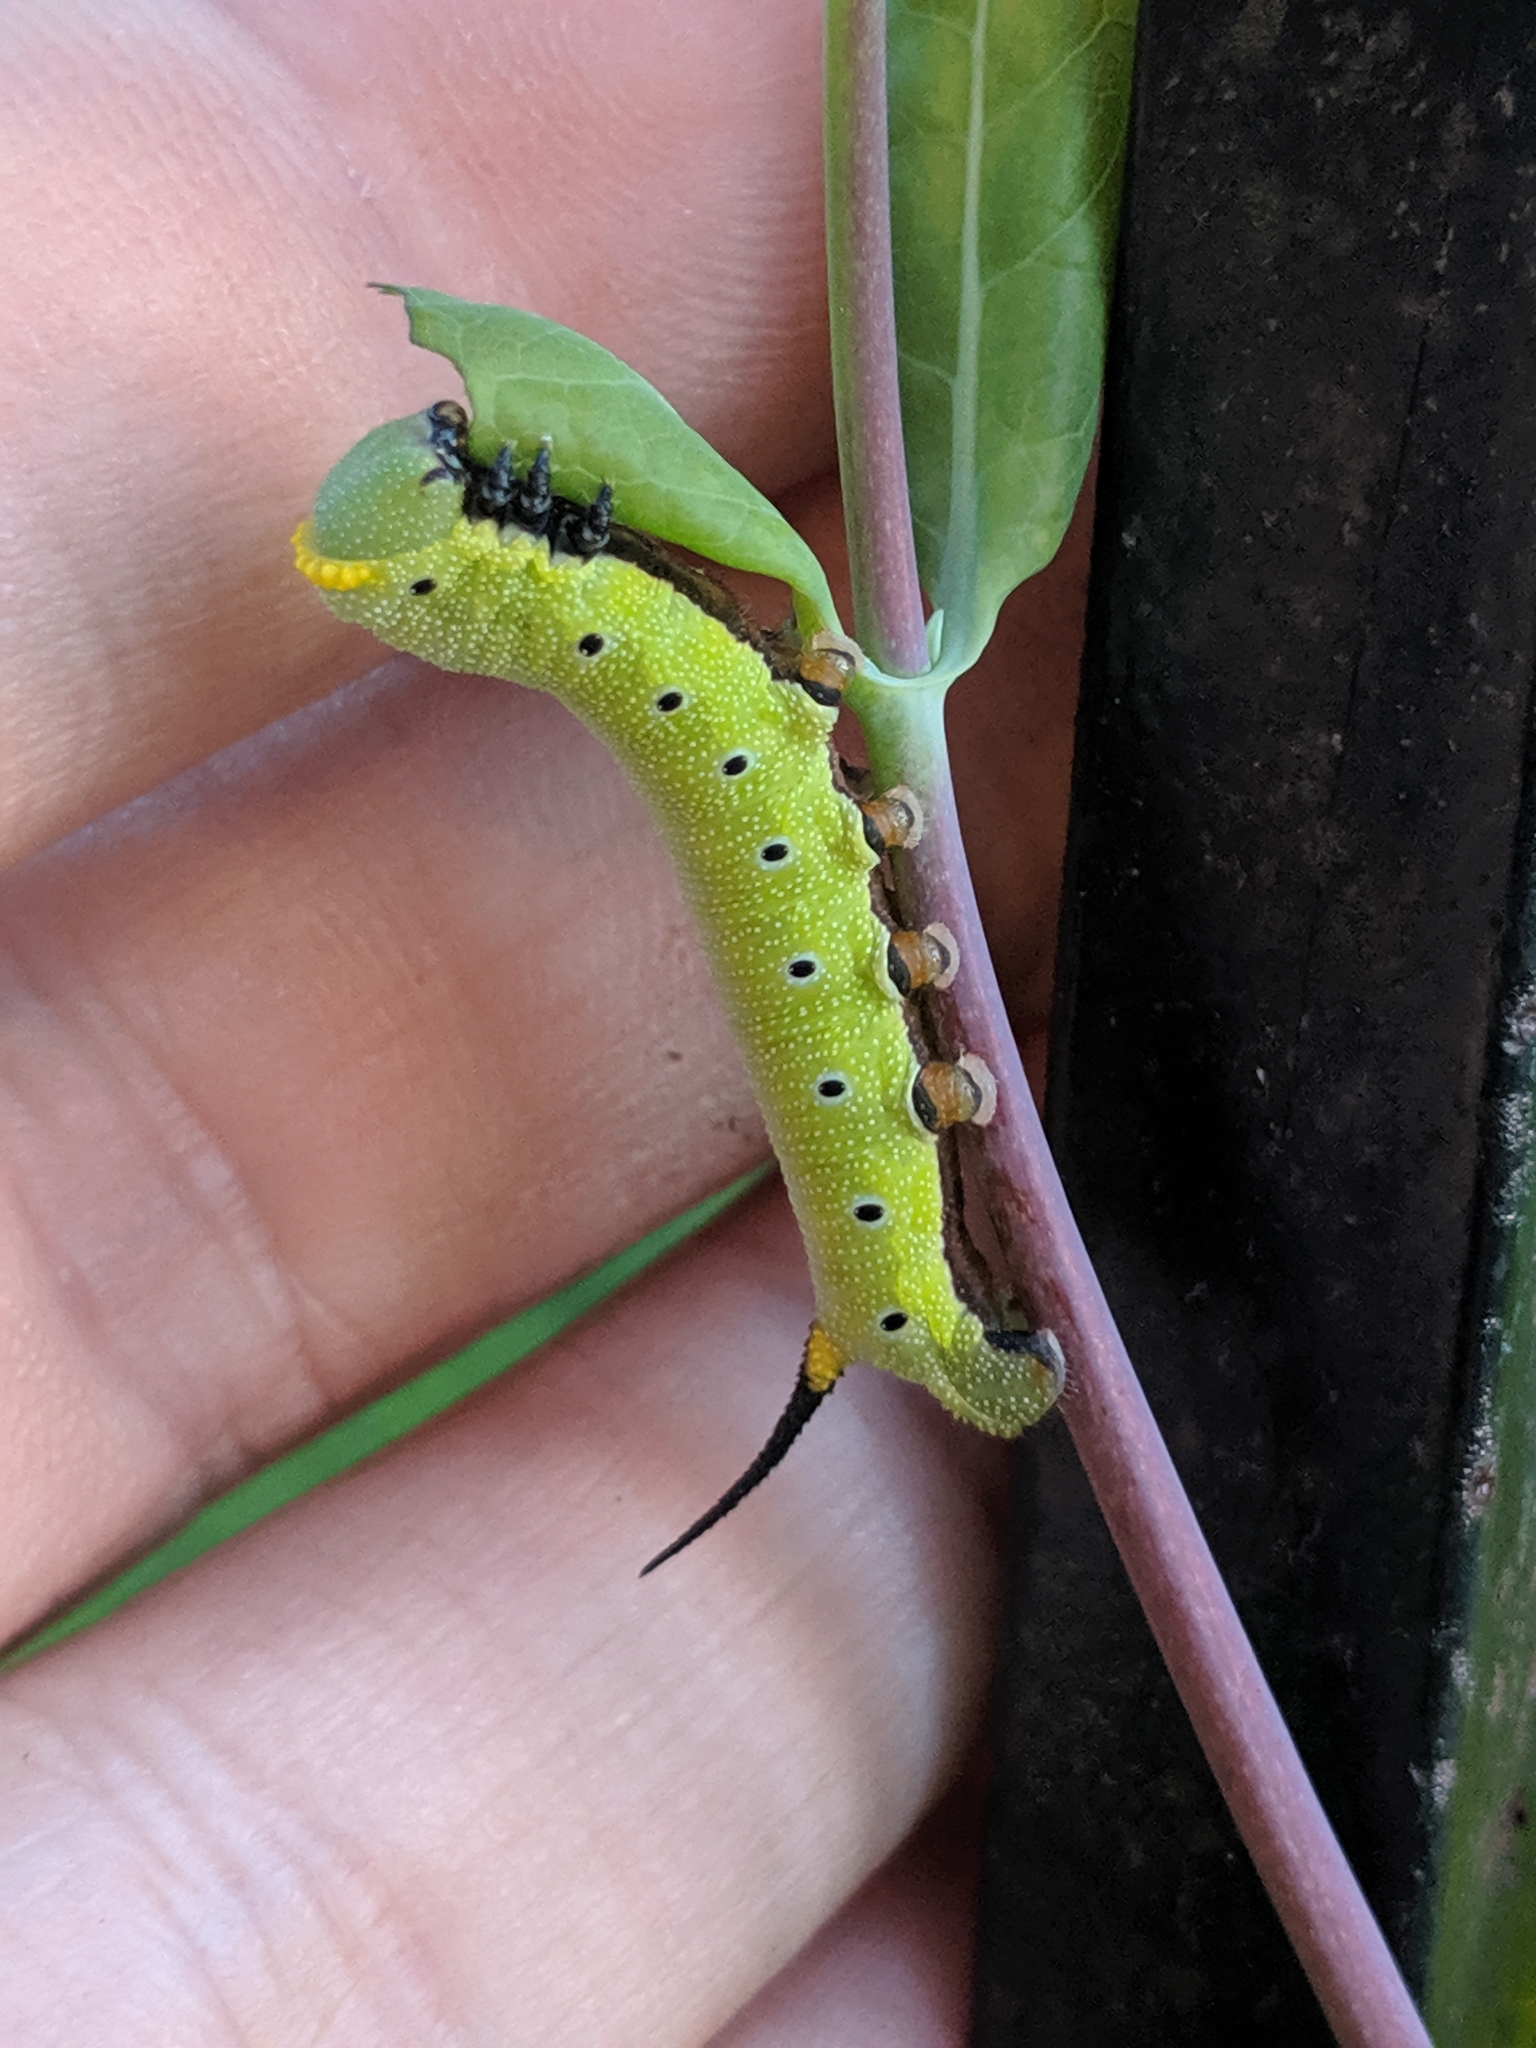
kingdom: Animalia
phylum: Arthropoda
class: Insecta
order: Lepidoptera
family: Sphingidae
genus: Hemaris
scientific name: Hemaris diffinis
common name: Bumblebee moth
